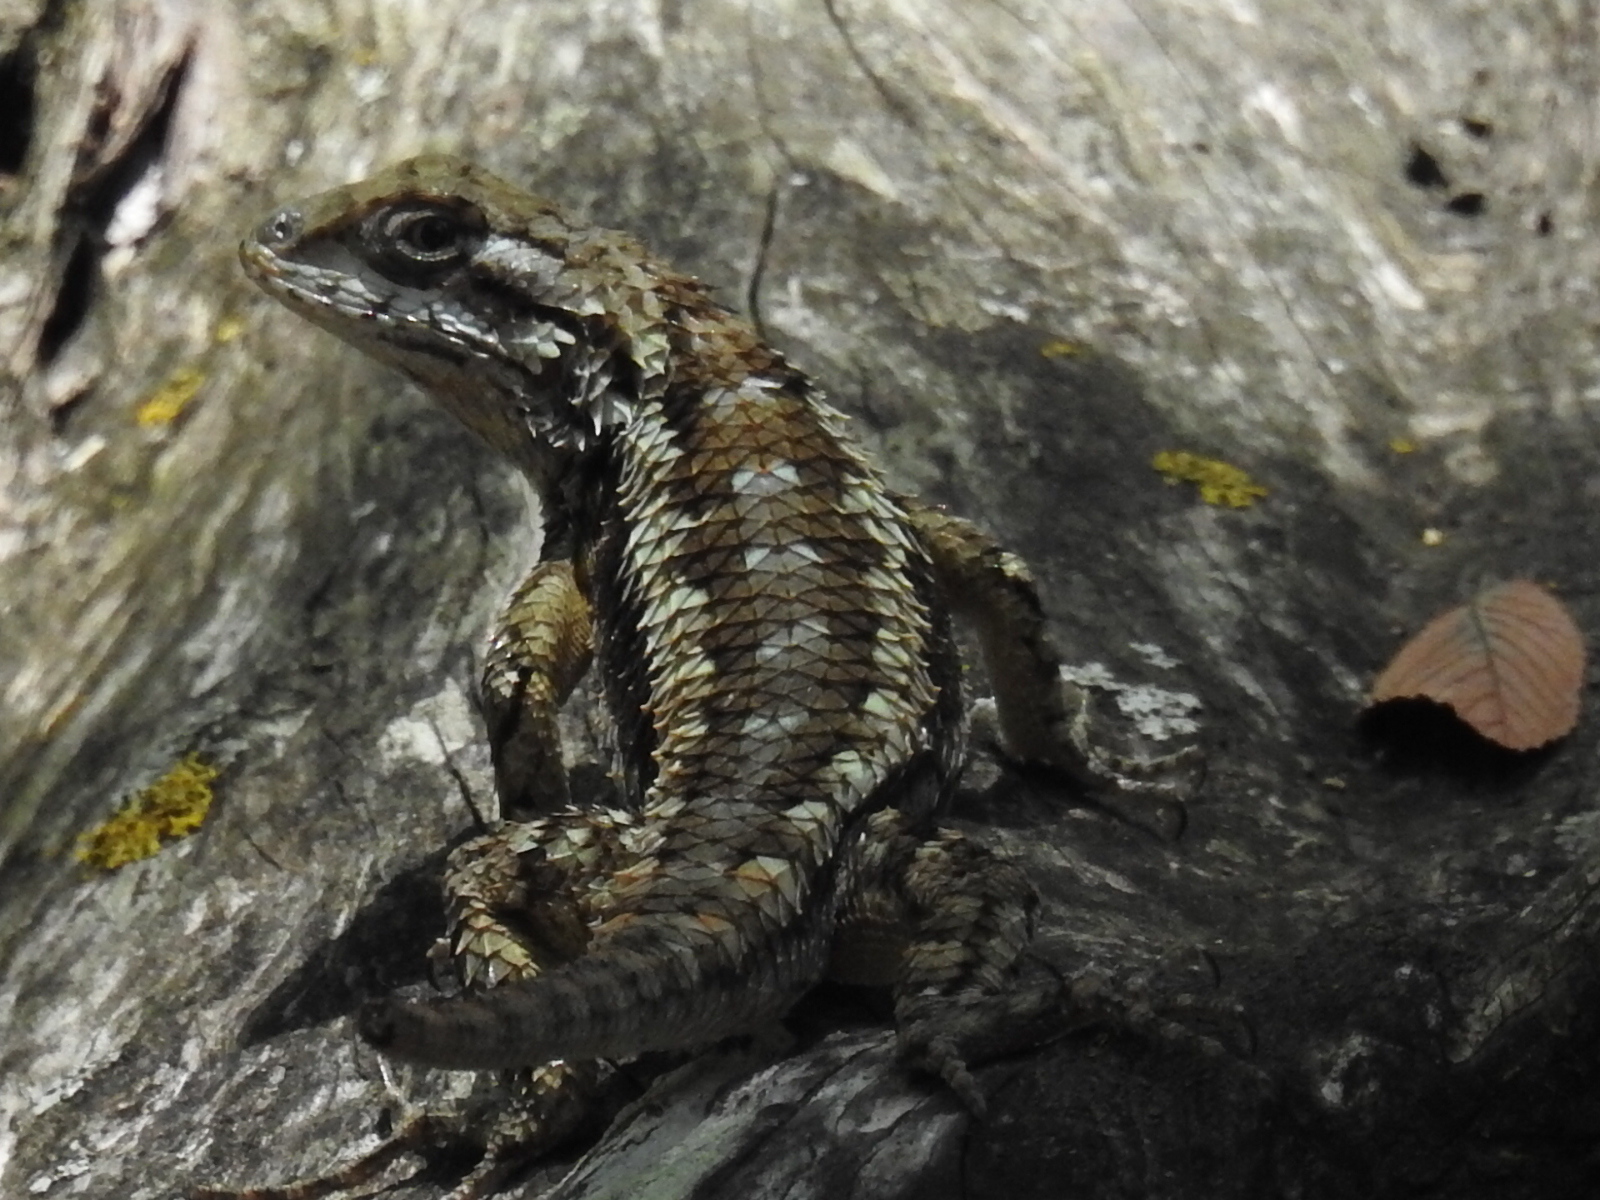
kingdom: Animalia
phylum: Chordata
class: Squamata
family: Phrynosomatidae
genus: Sceloporus
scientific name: Sceloporus olivaceus
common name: Texas spiny lizard
